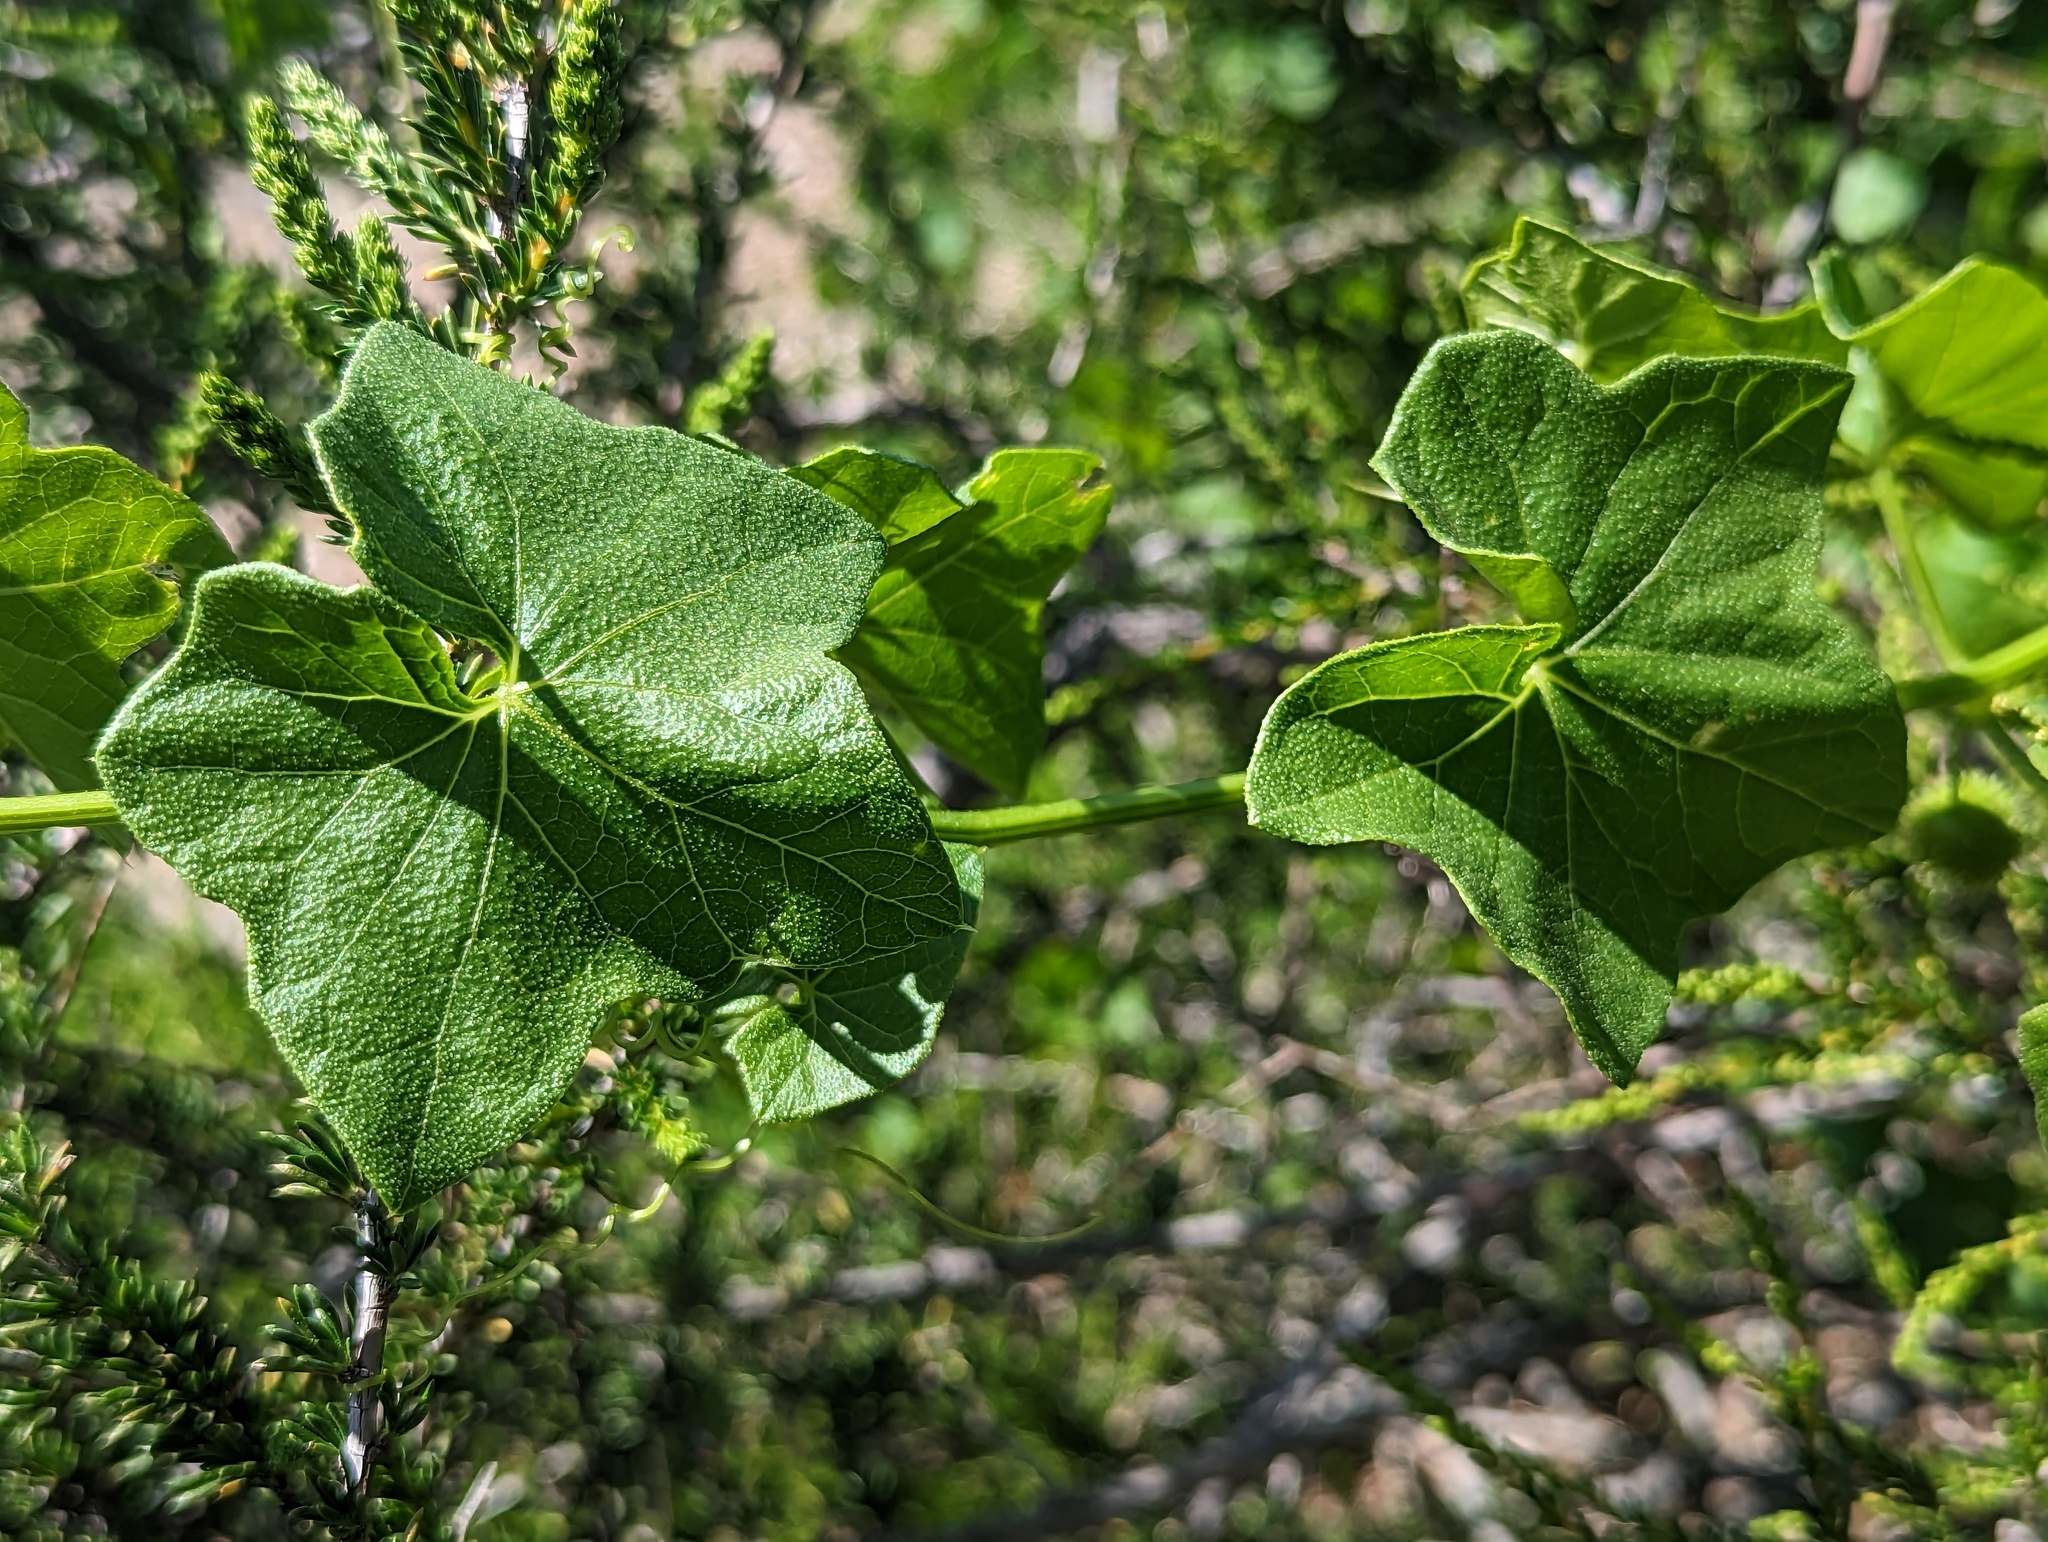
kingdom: Plantae
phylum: Tracheophyta
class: Magnoliopsida
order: Cucurbitales
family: Cucurbitaceae
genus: Marah
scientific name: Marah fabacea
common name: California manroot
